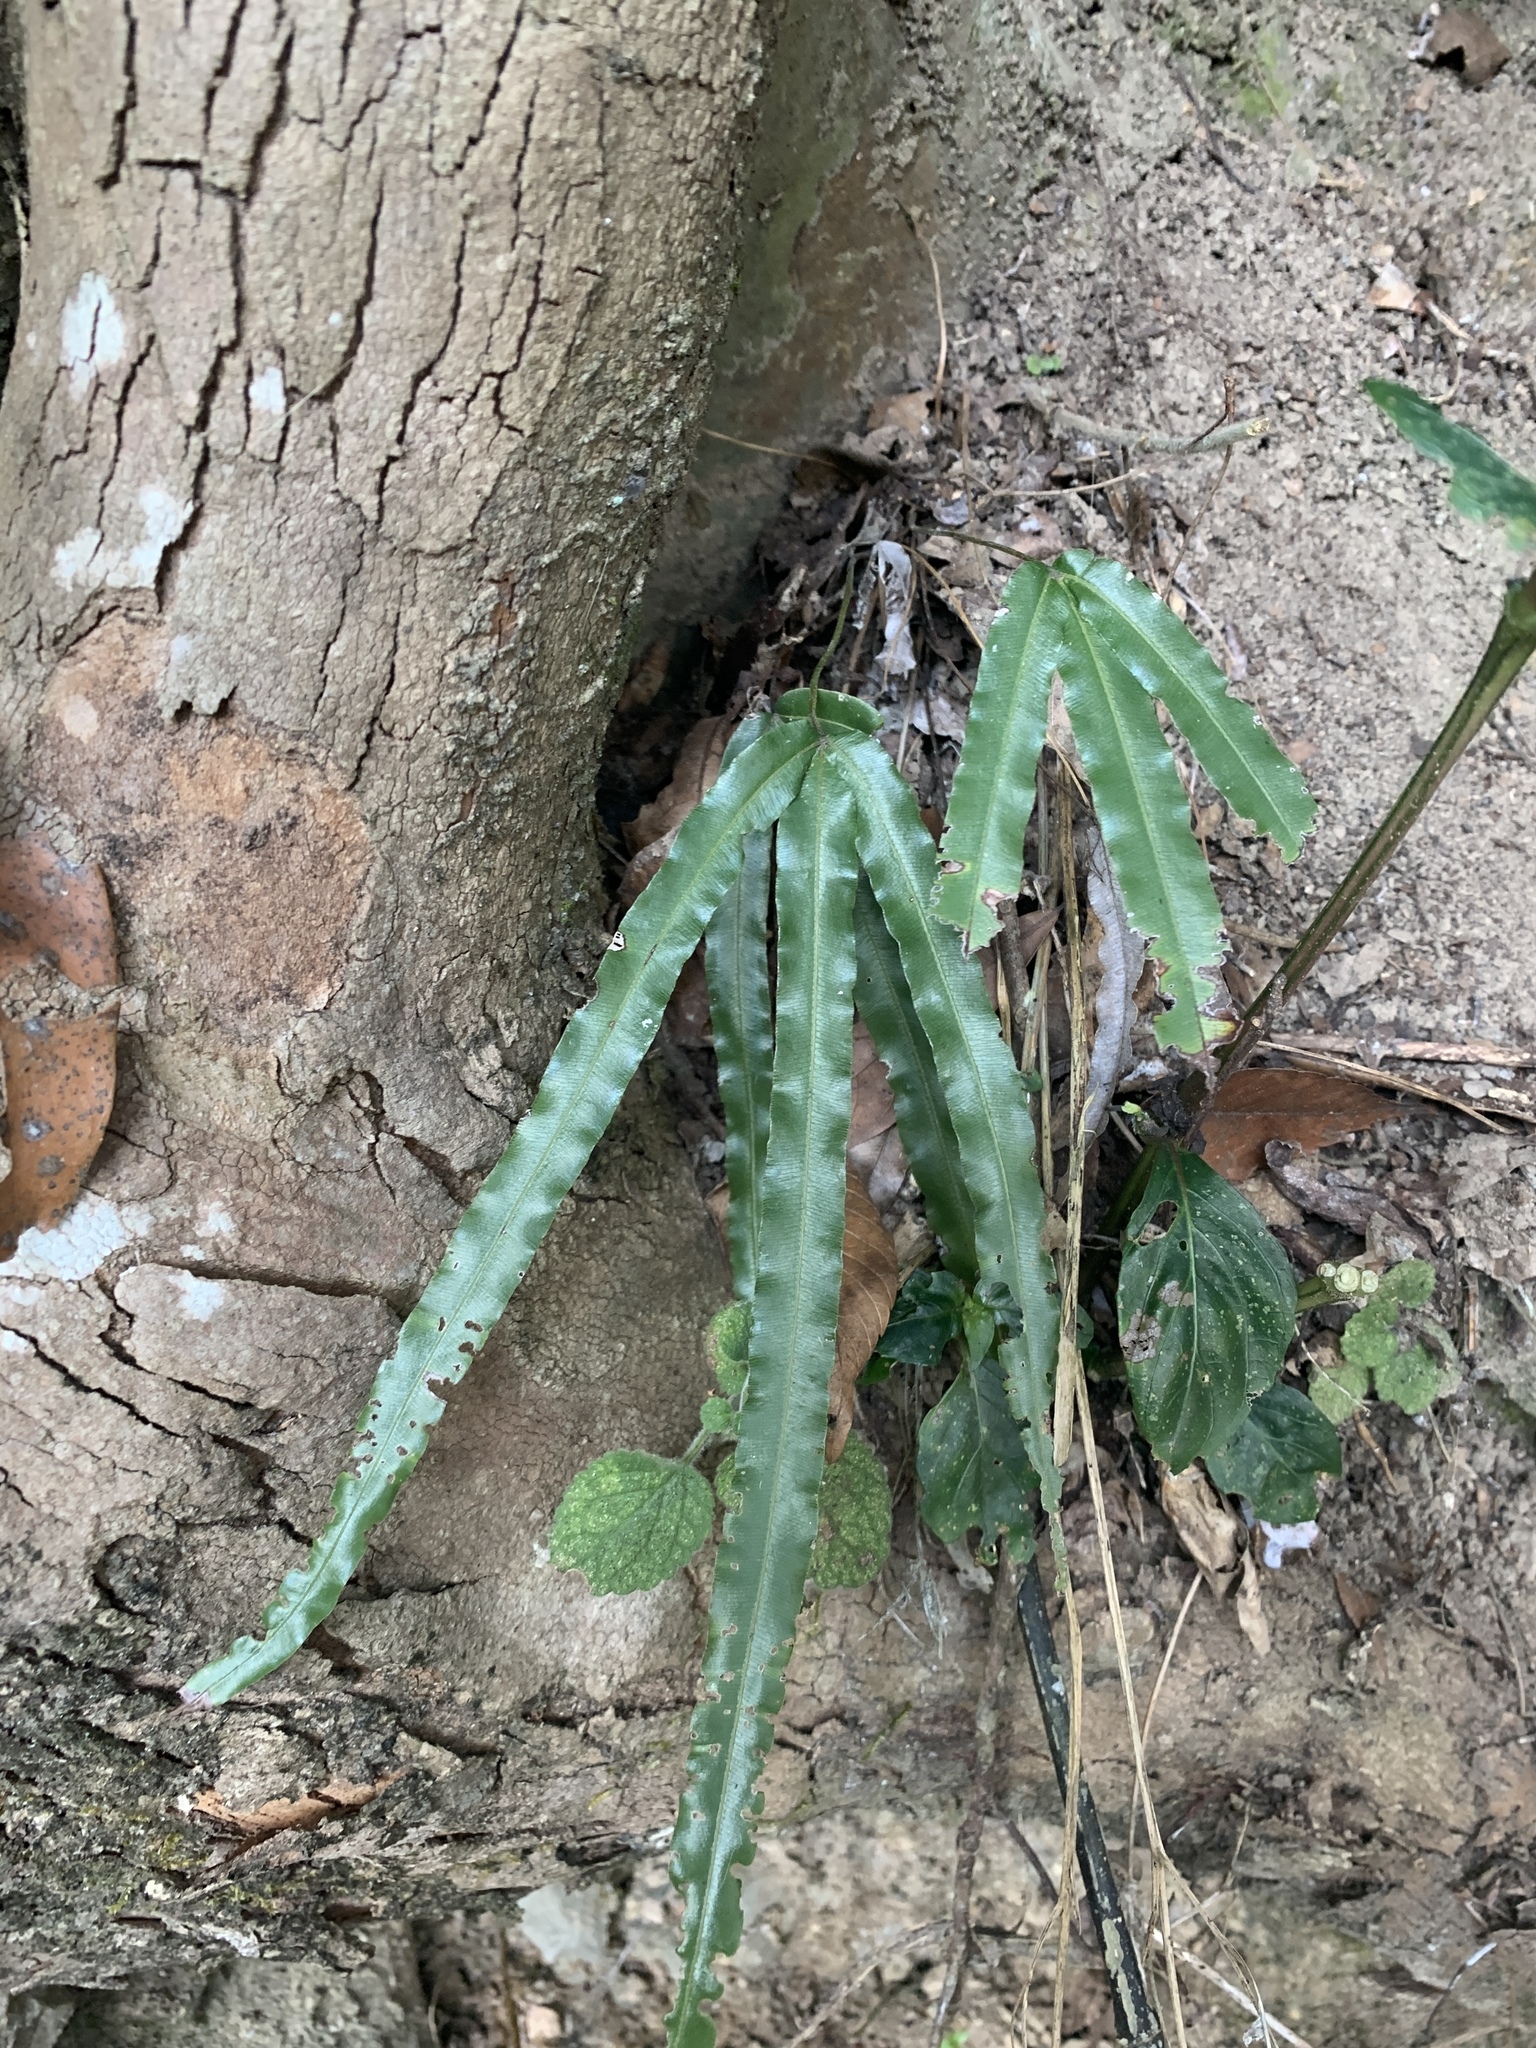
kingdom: Plantae
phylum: Tracheophyta
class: Polypodiopsida
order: Polypodiales
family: Pteridaceae
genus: Pteris
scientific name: Pteris longipinna
